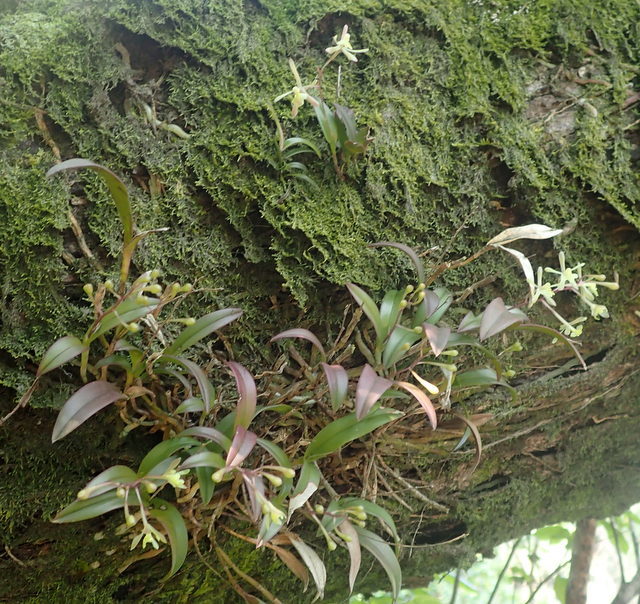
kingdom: Plantae
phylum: Tracheophyta
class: Liliopsida
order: Asparagales
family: Orchidaceae
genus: Epidendrum
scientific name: Epidendrum conopseum
